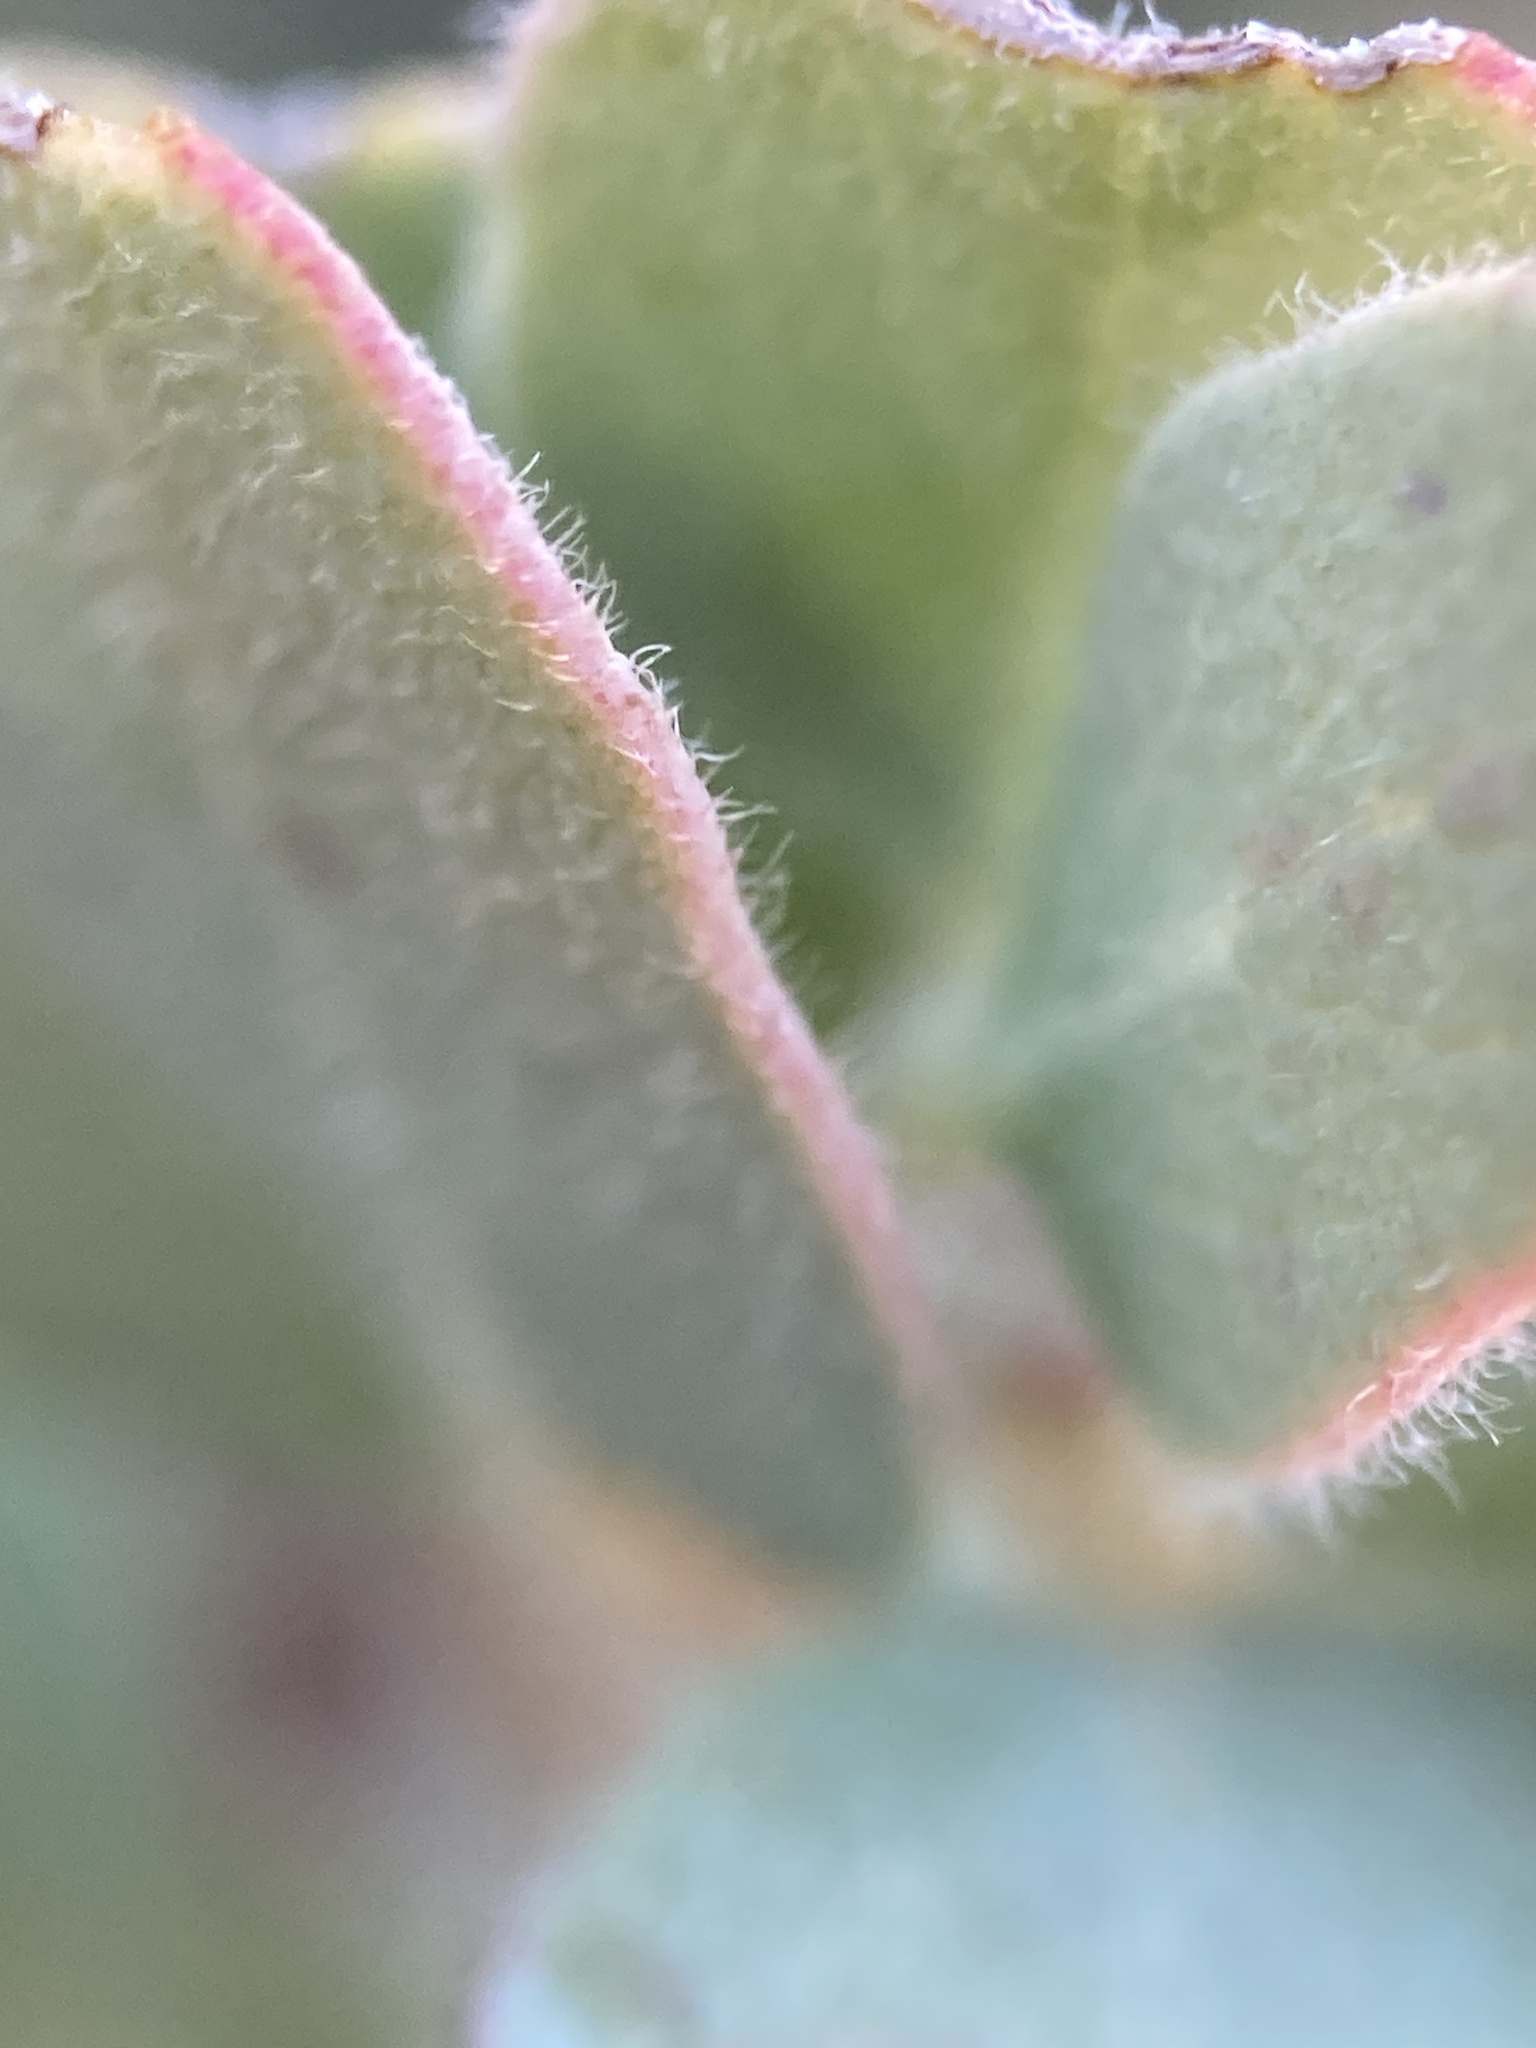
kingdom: Plantae
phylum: Tracheophyta
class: Magnoliopsida
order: Ericales
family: Ericaceae
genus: Arctostaphylos
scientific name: Arctostaphylos nissenana
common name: Nissenan manzanita
